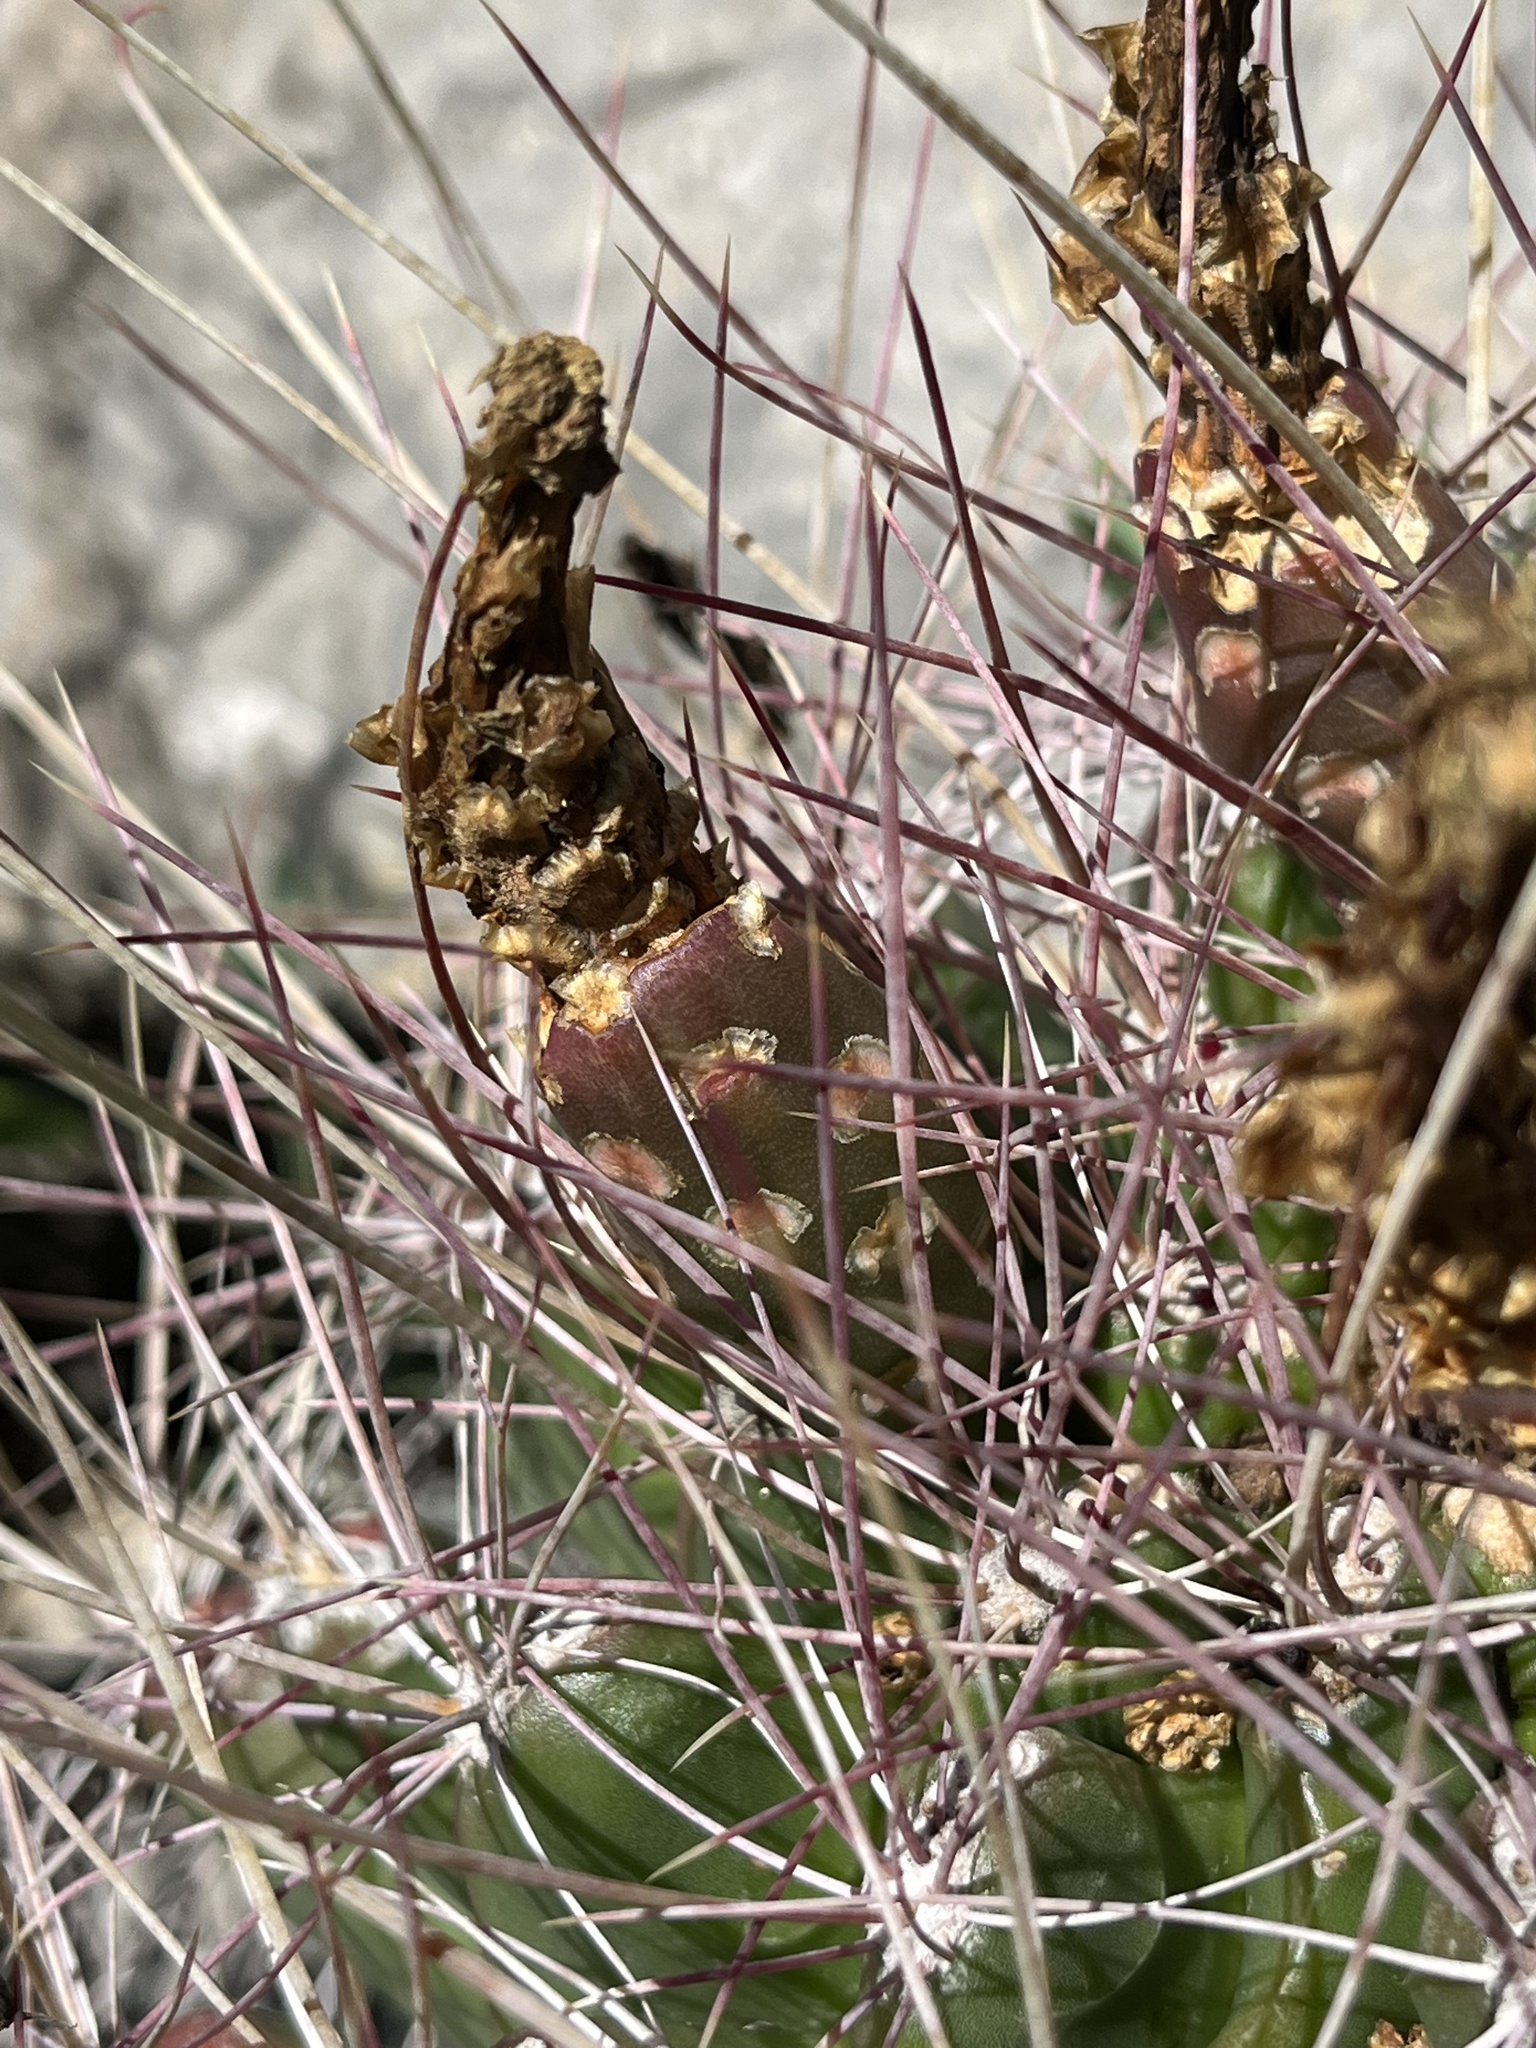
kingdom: Plantae
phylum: Tracheophyta
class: Magnoliopsida
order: Caryophyllales
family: Cactaceae
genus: Bisnaga
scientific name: Bisnaga hamatacantha
